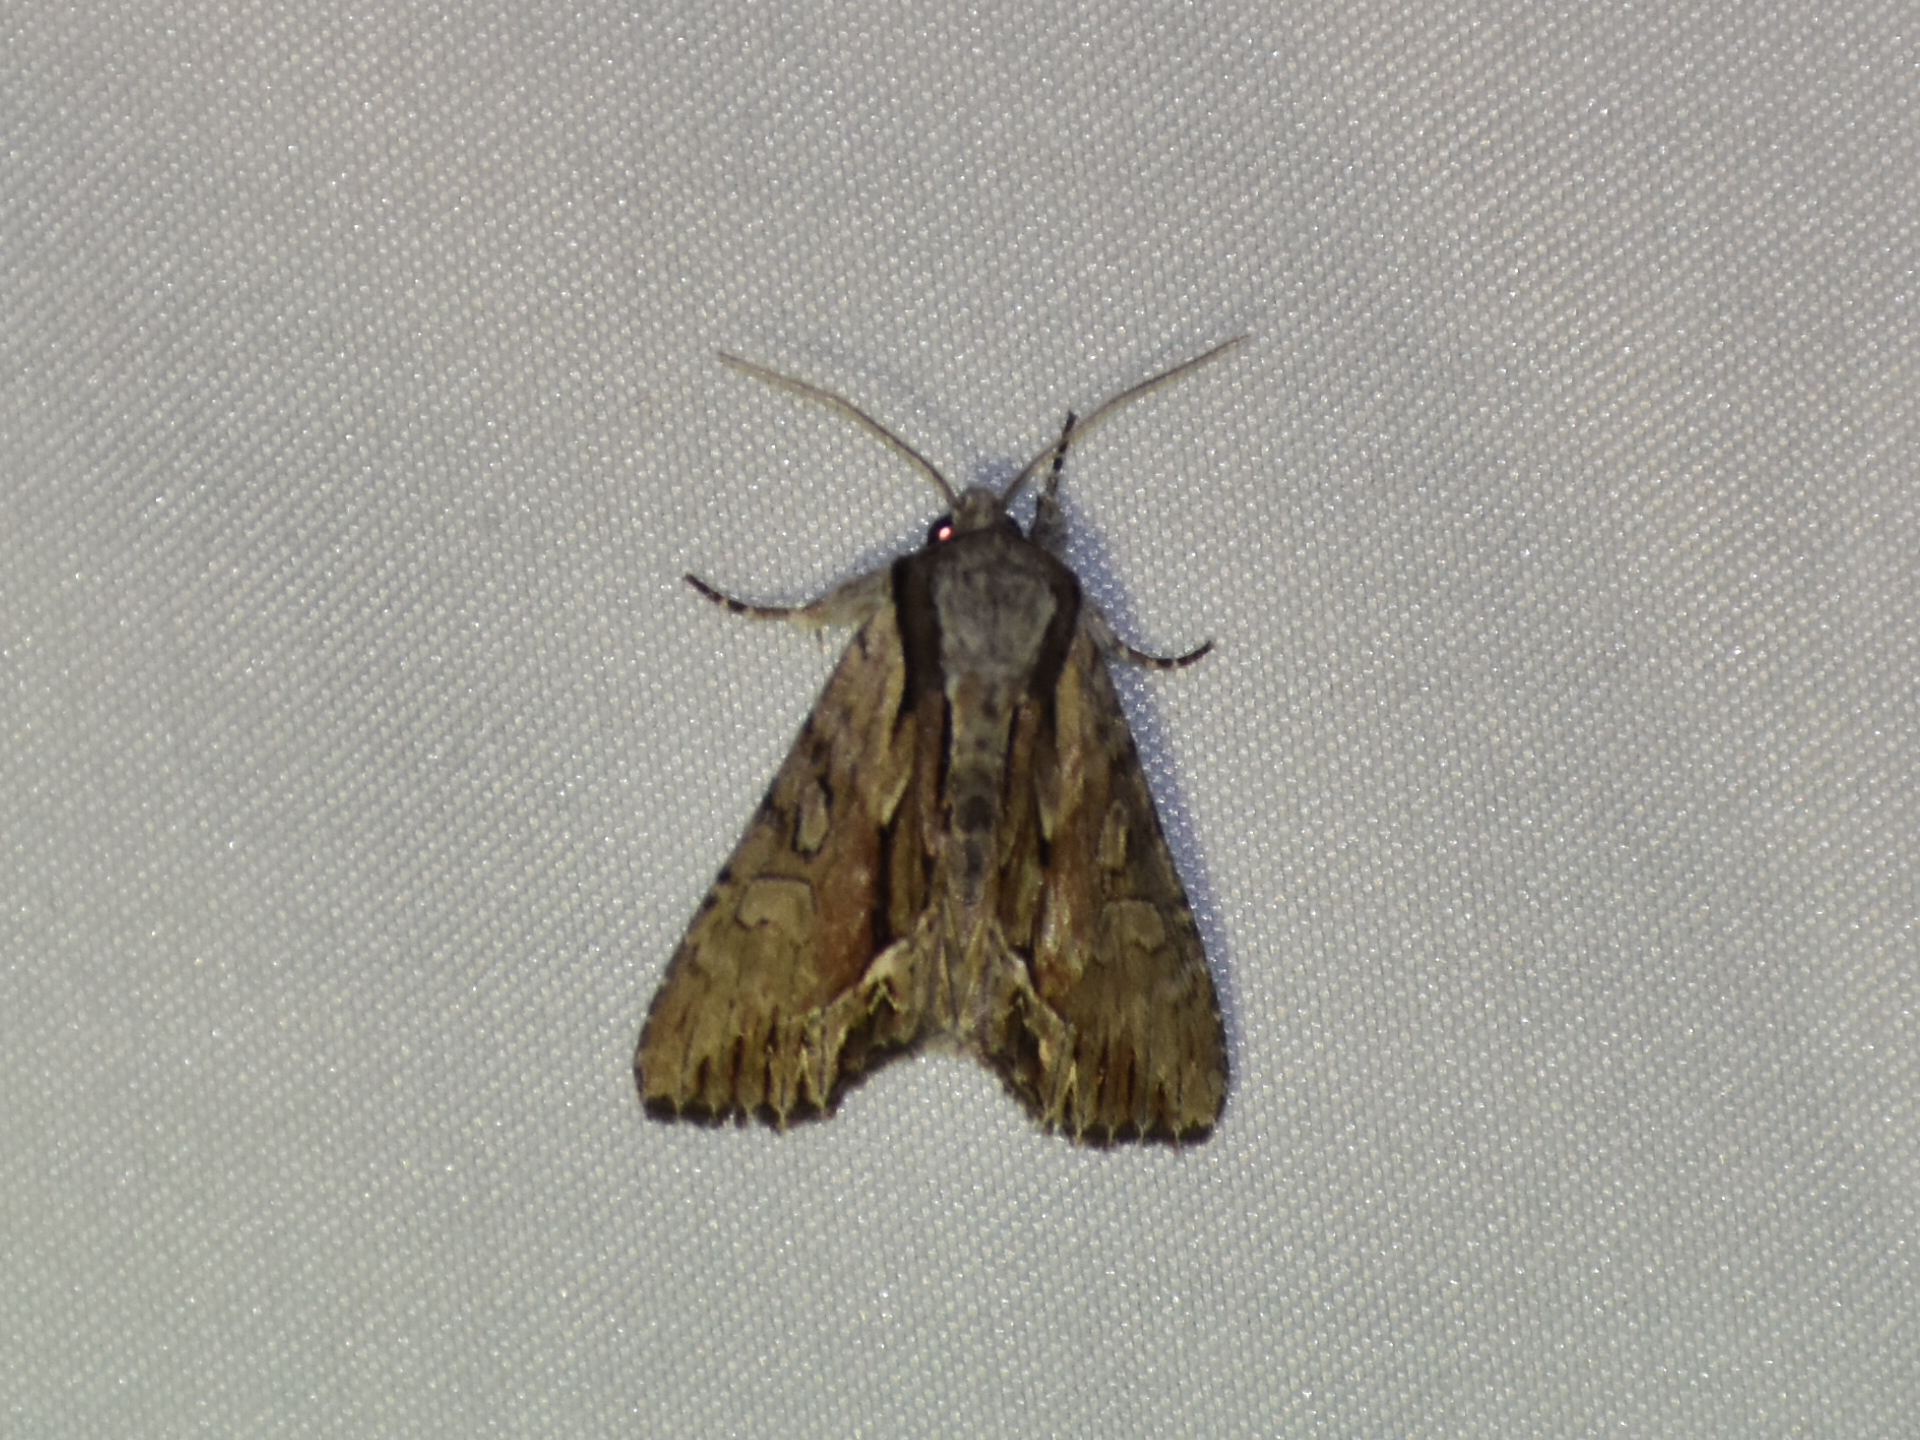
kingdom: Animalia
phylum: Arthropoda
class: Insecta
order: Lepidoptera
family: Noctuidae
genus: Hyppa
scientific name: Hyppa xylinoides
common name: Common hyppa moth
